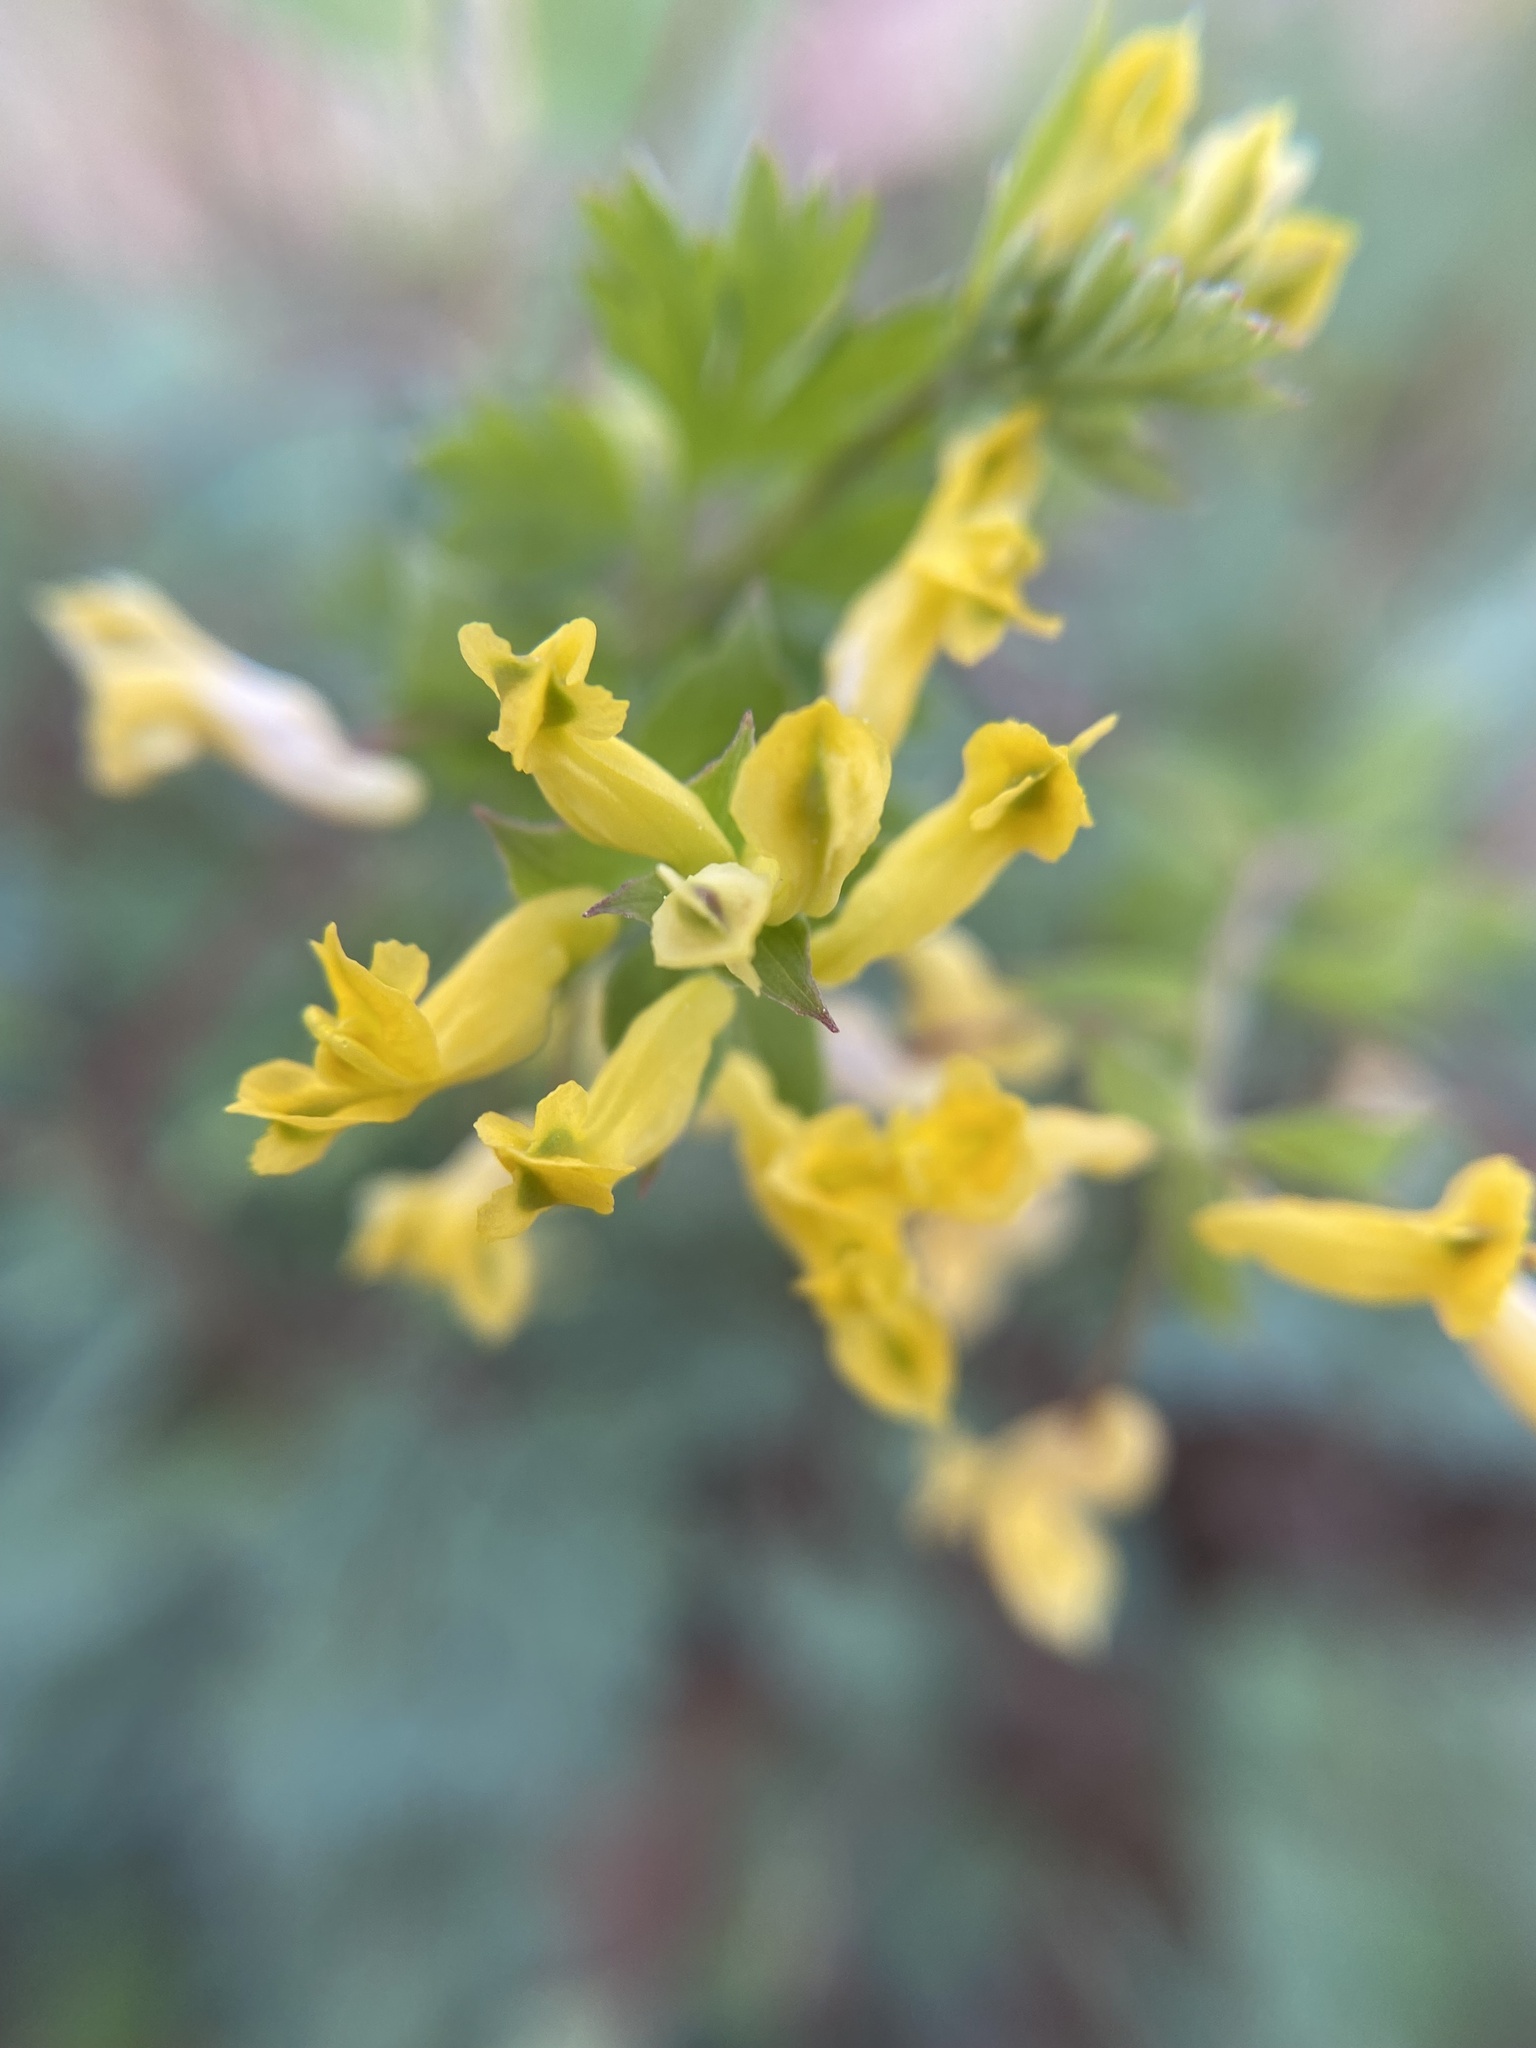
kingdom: Plantae
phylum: Tracheophyta
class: Magnoliopsida
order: Ranunculales
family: Papaveraceae
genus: Corydalis
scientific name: Corydalis flavula
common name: Yellow corydalis
